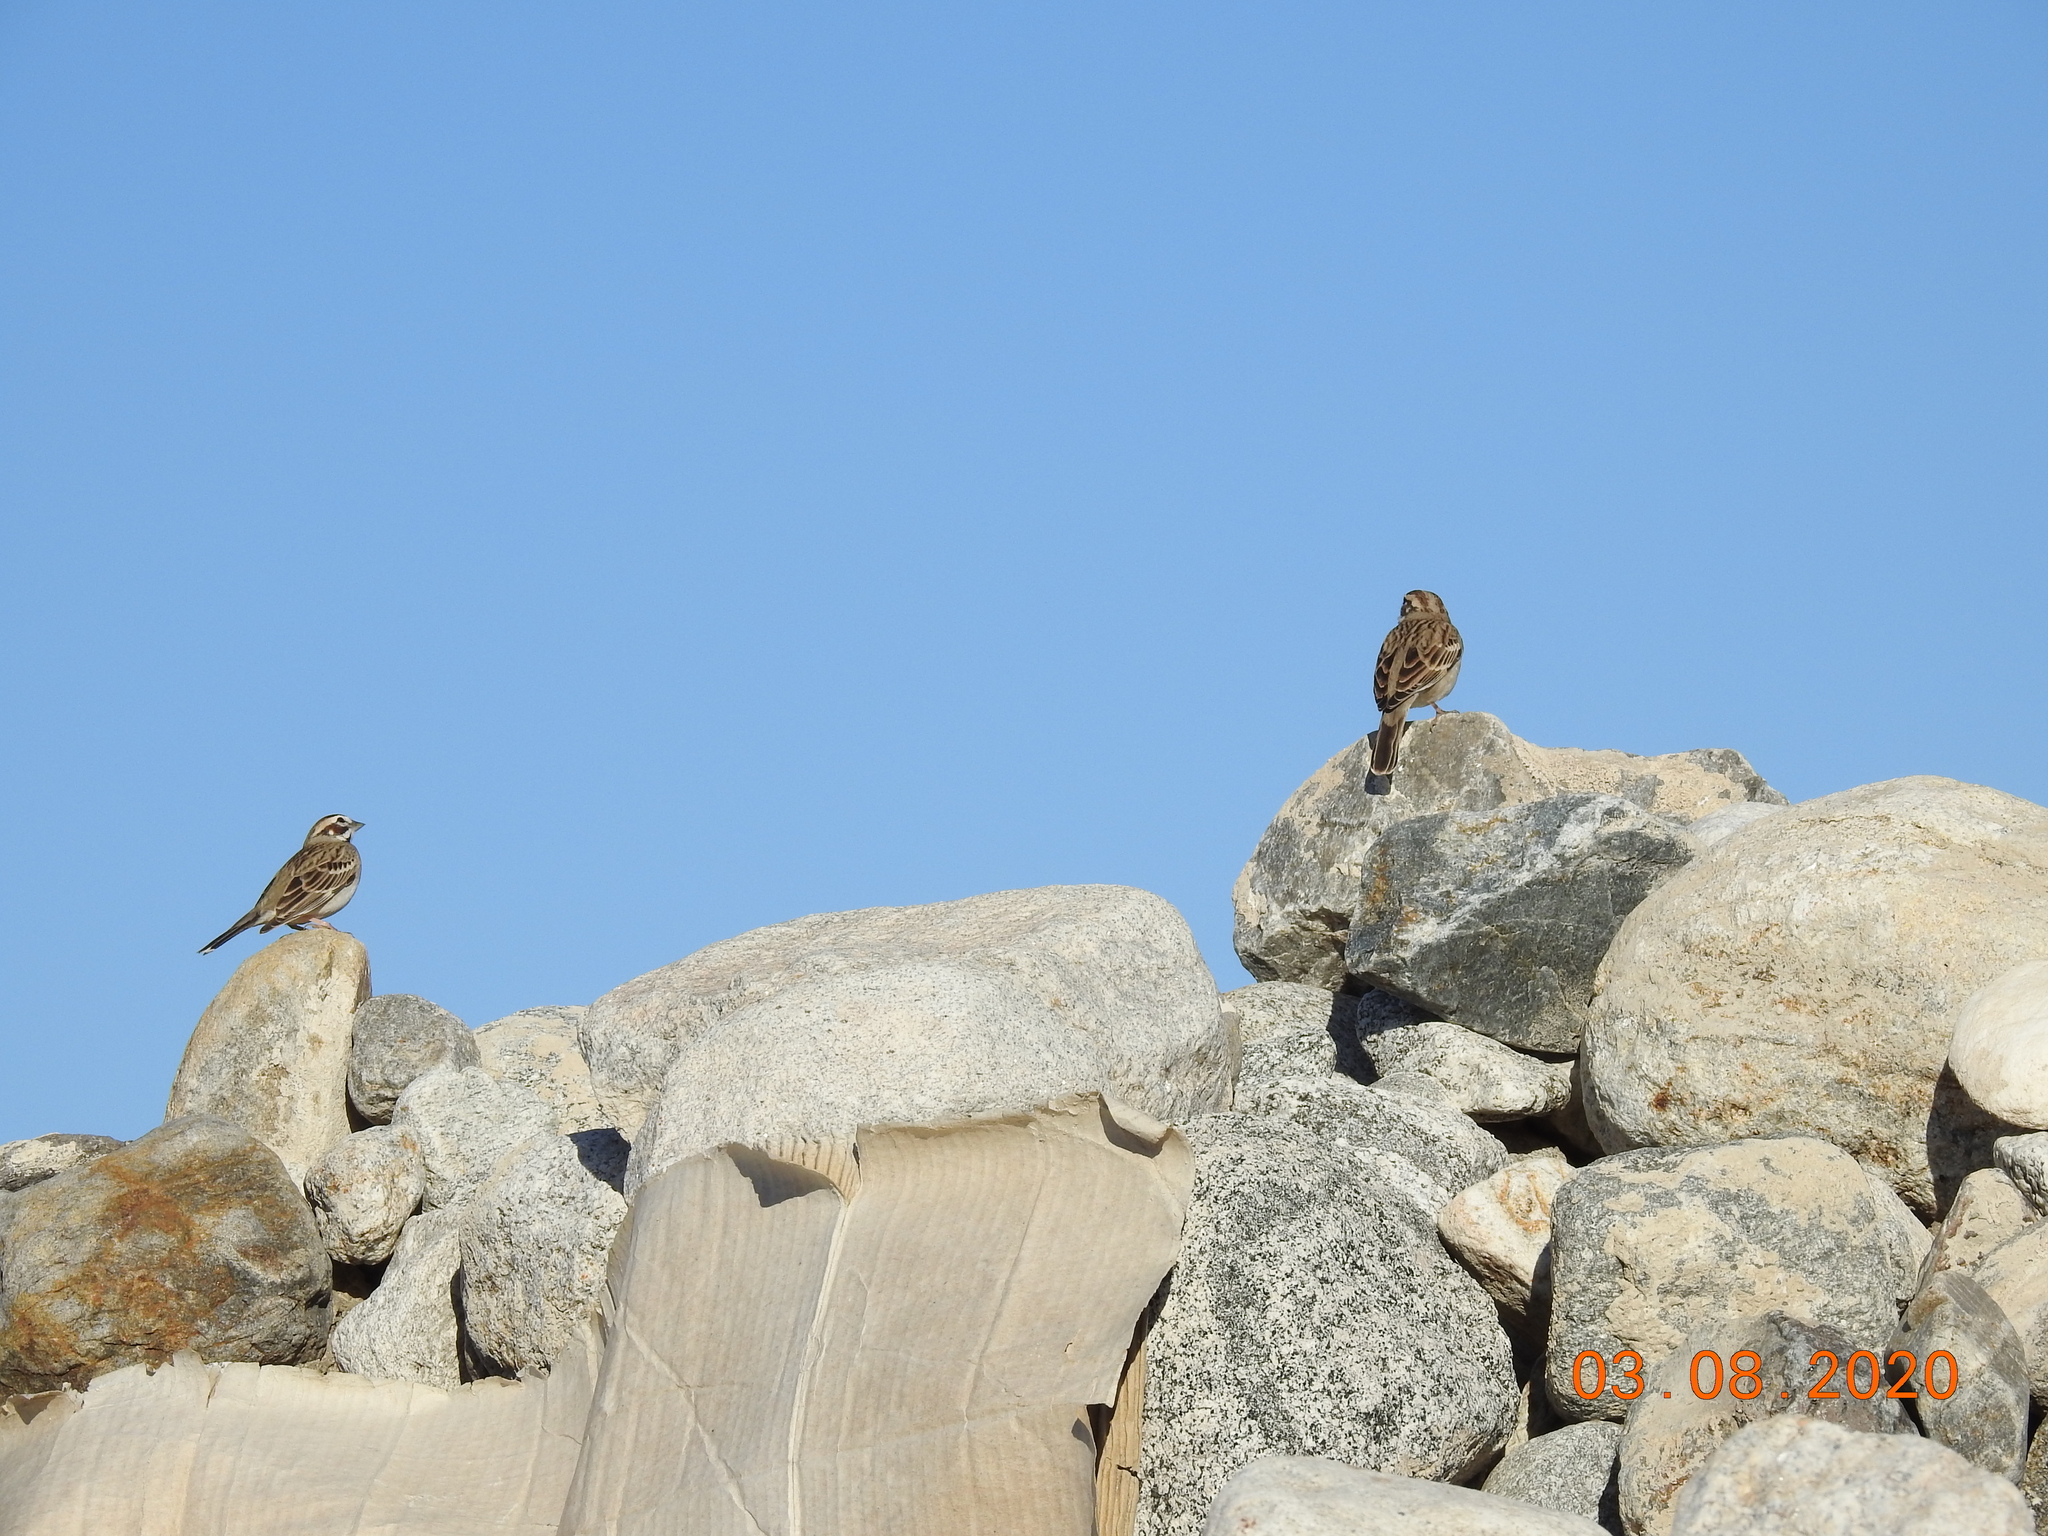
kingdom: Animalia
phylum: Chordata
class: Aves
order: Passeriformes
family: Passerellidae
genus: Chondestes
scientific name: Chondestes grammacus
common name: Lark sparrow
